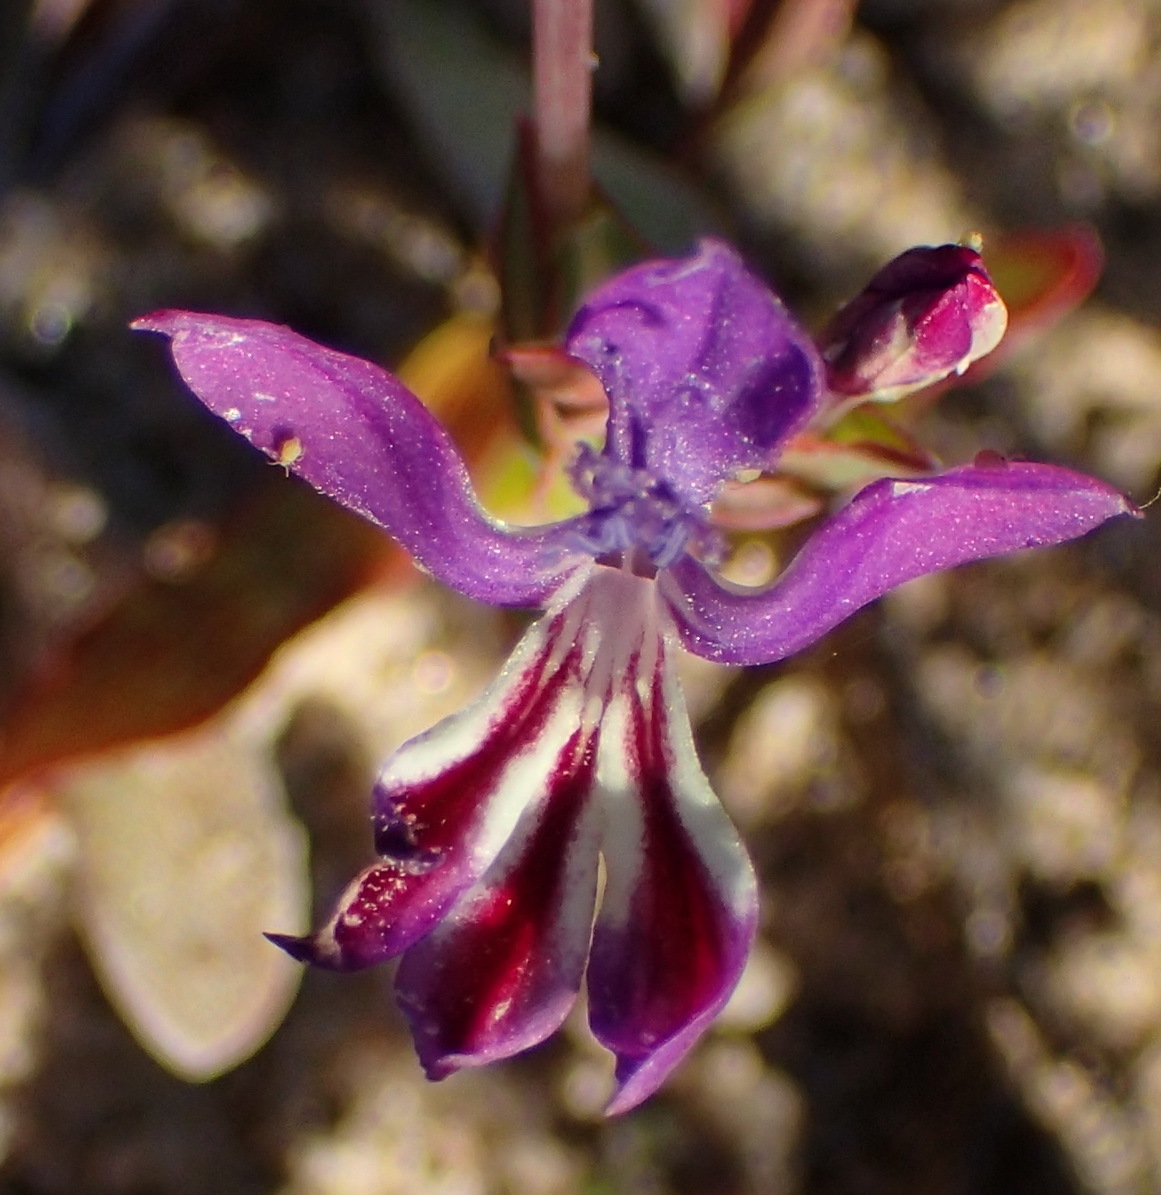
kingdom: Plantae
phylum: Tracheophyta
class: Liliopsida
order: Asparagales
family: Iridaceae
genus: Lapeirousia
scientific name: Lapeirousia jacquinii
